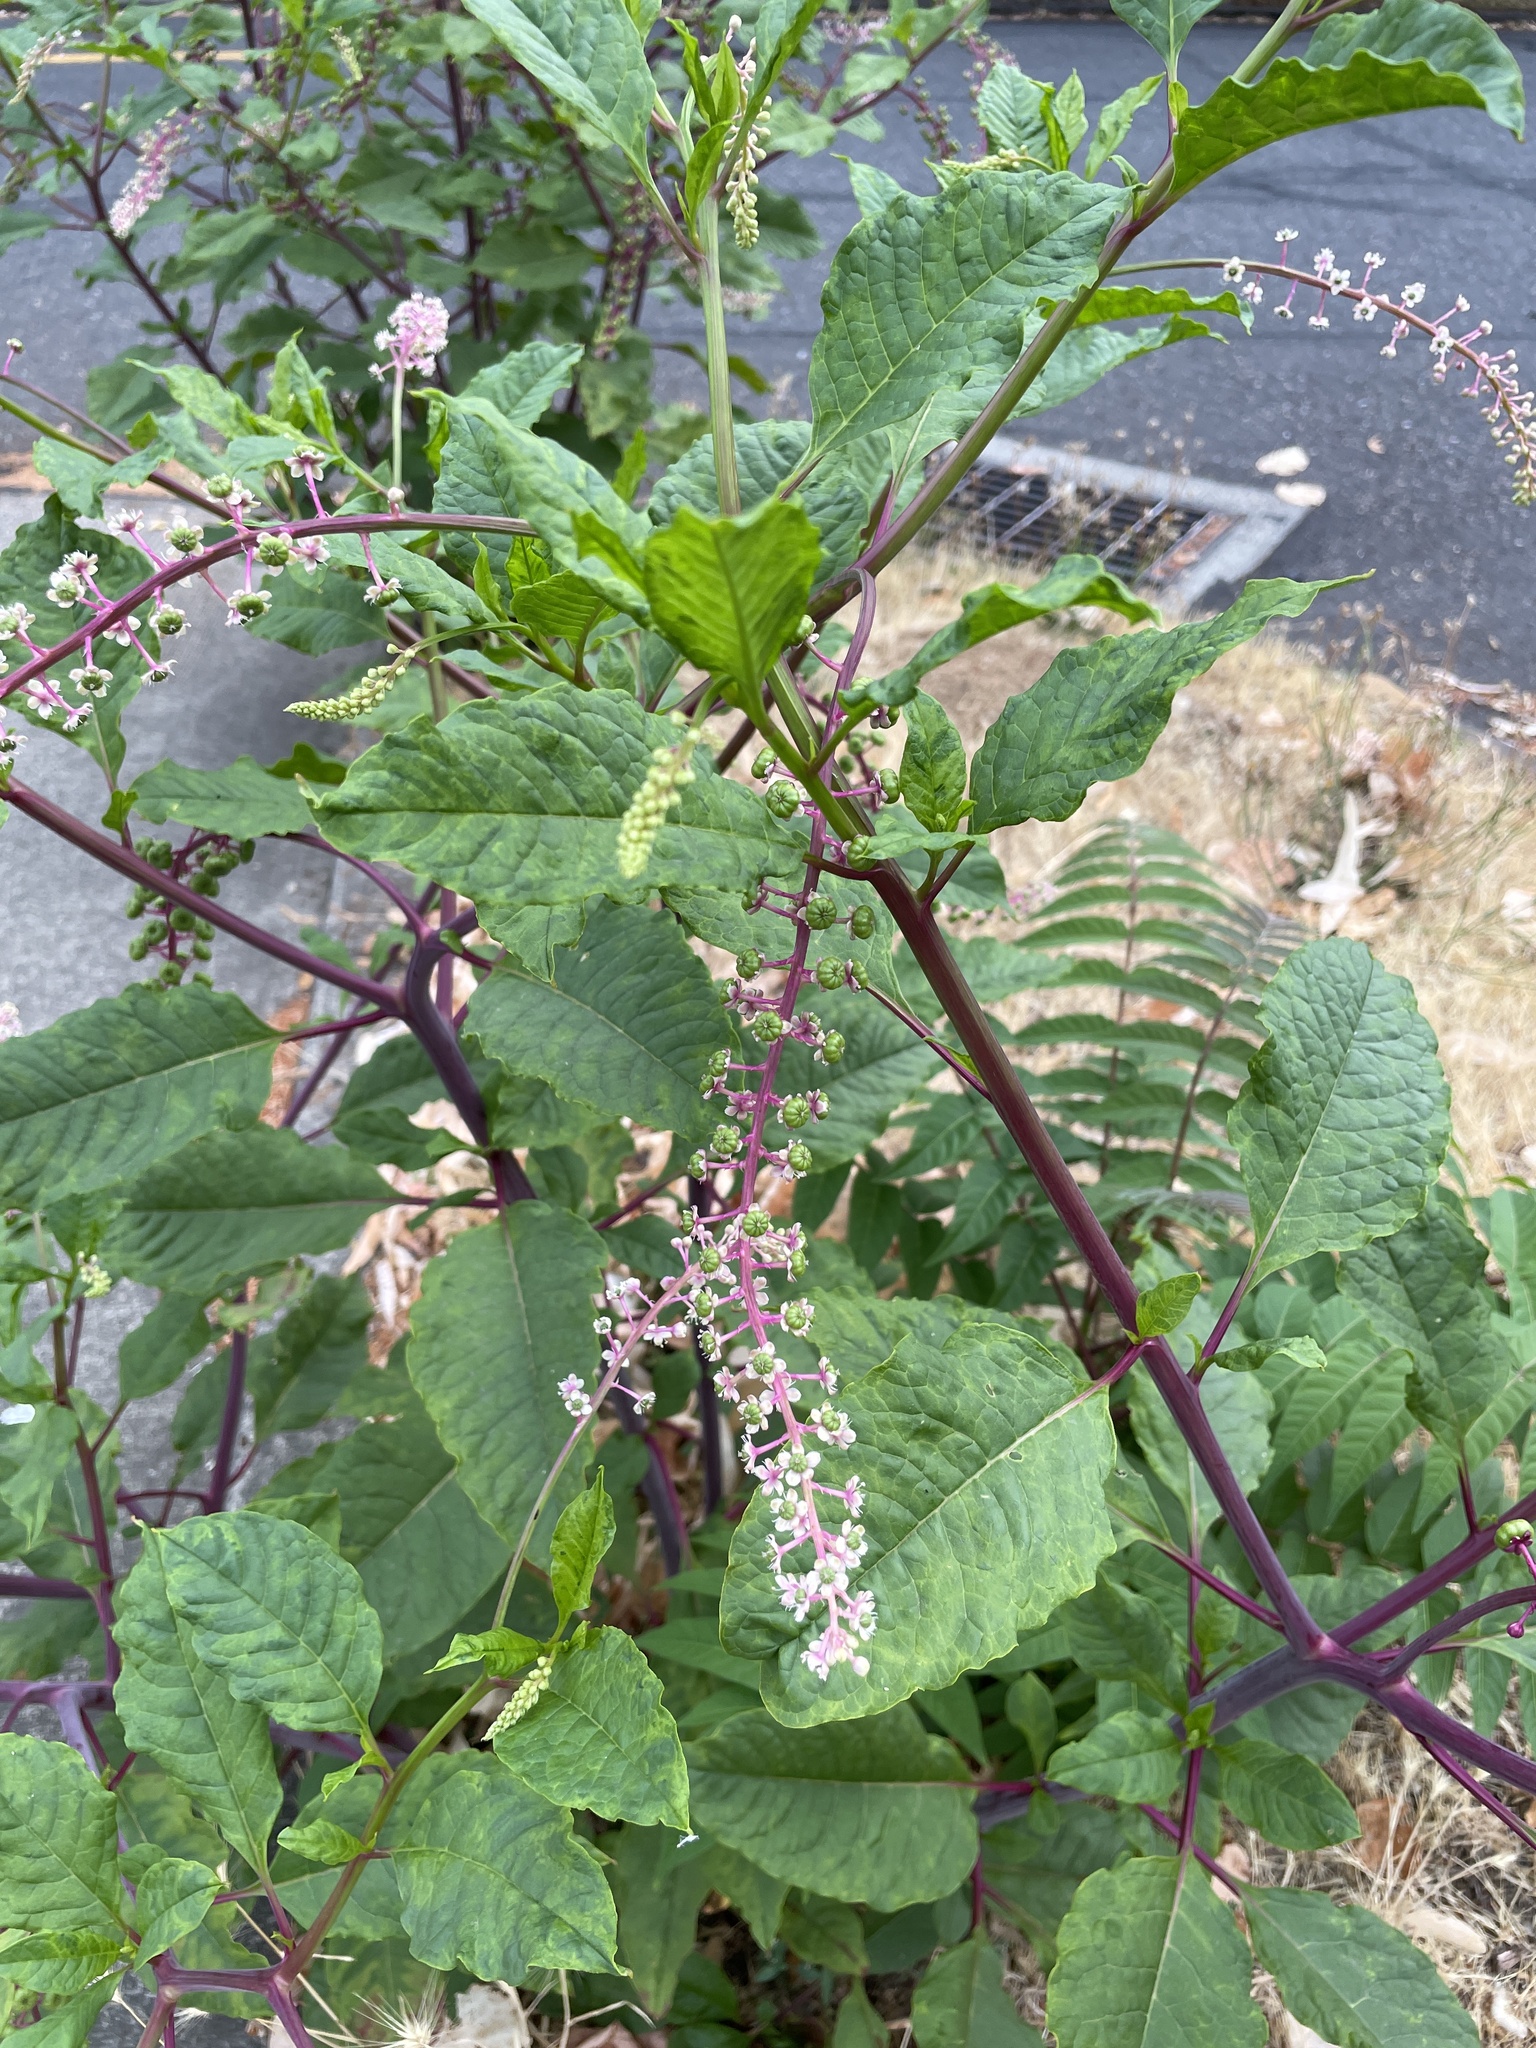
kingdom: Plantae
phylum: Tracheophyta
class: Magnoliopsida
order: Caryophyllales
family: Phytolaccaceae
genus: Phytolacca
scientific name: Phytolacca americana
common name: American pokeweed
